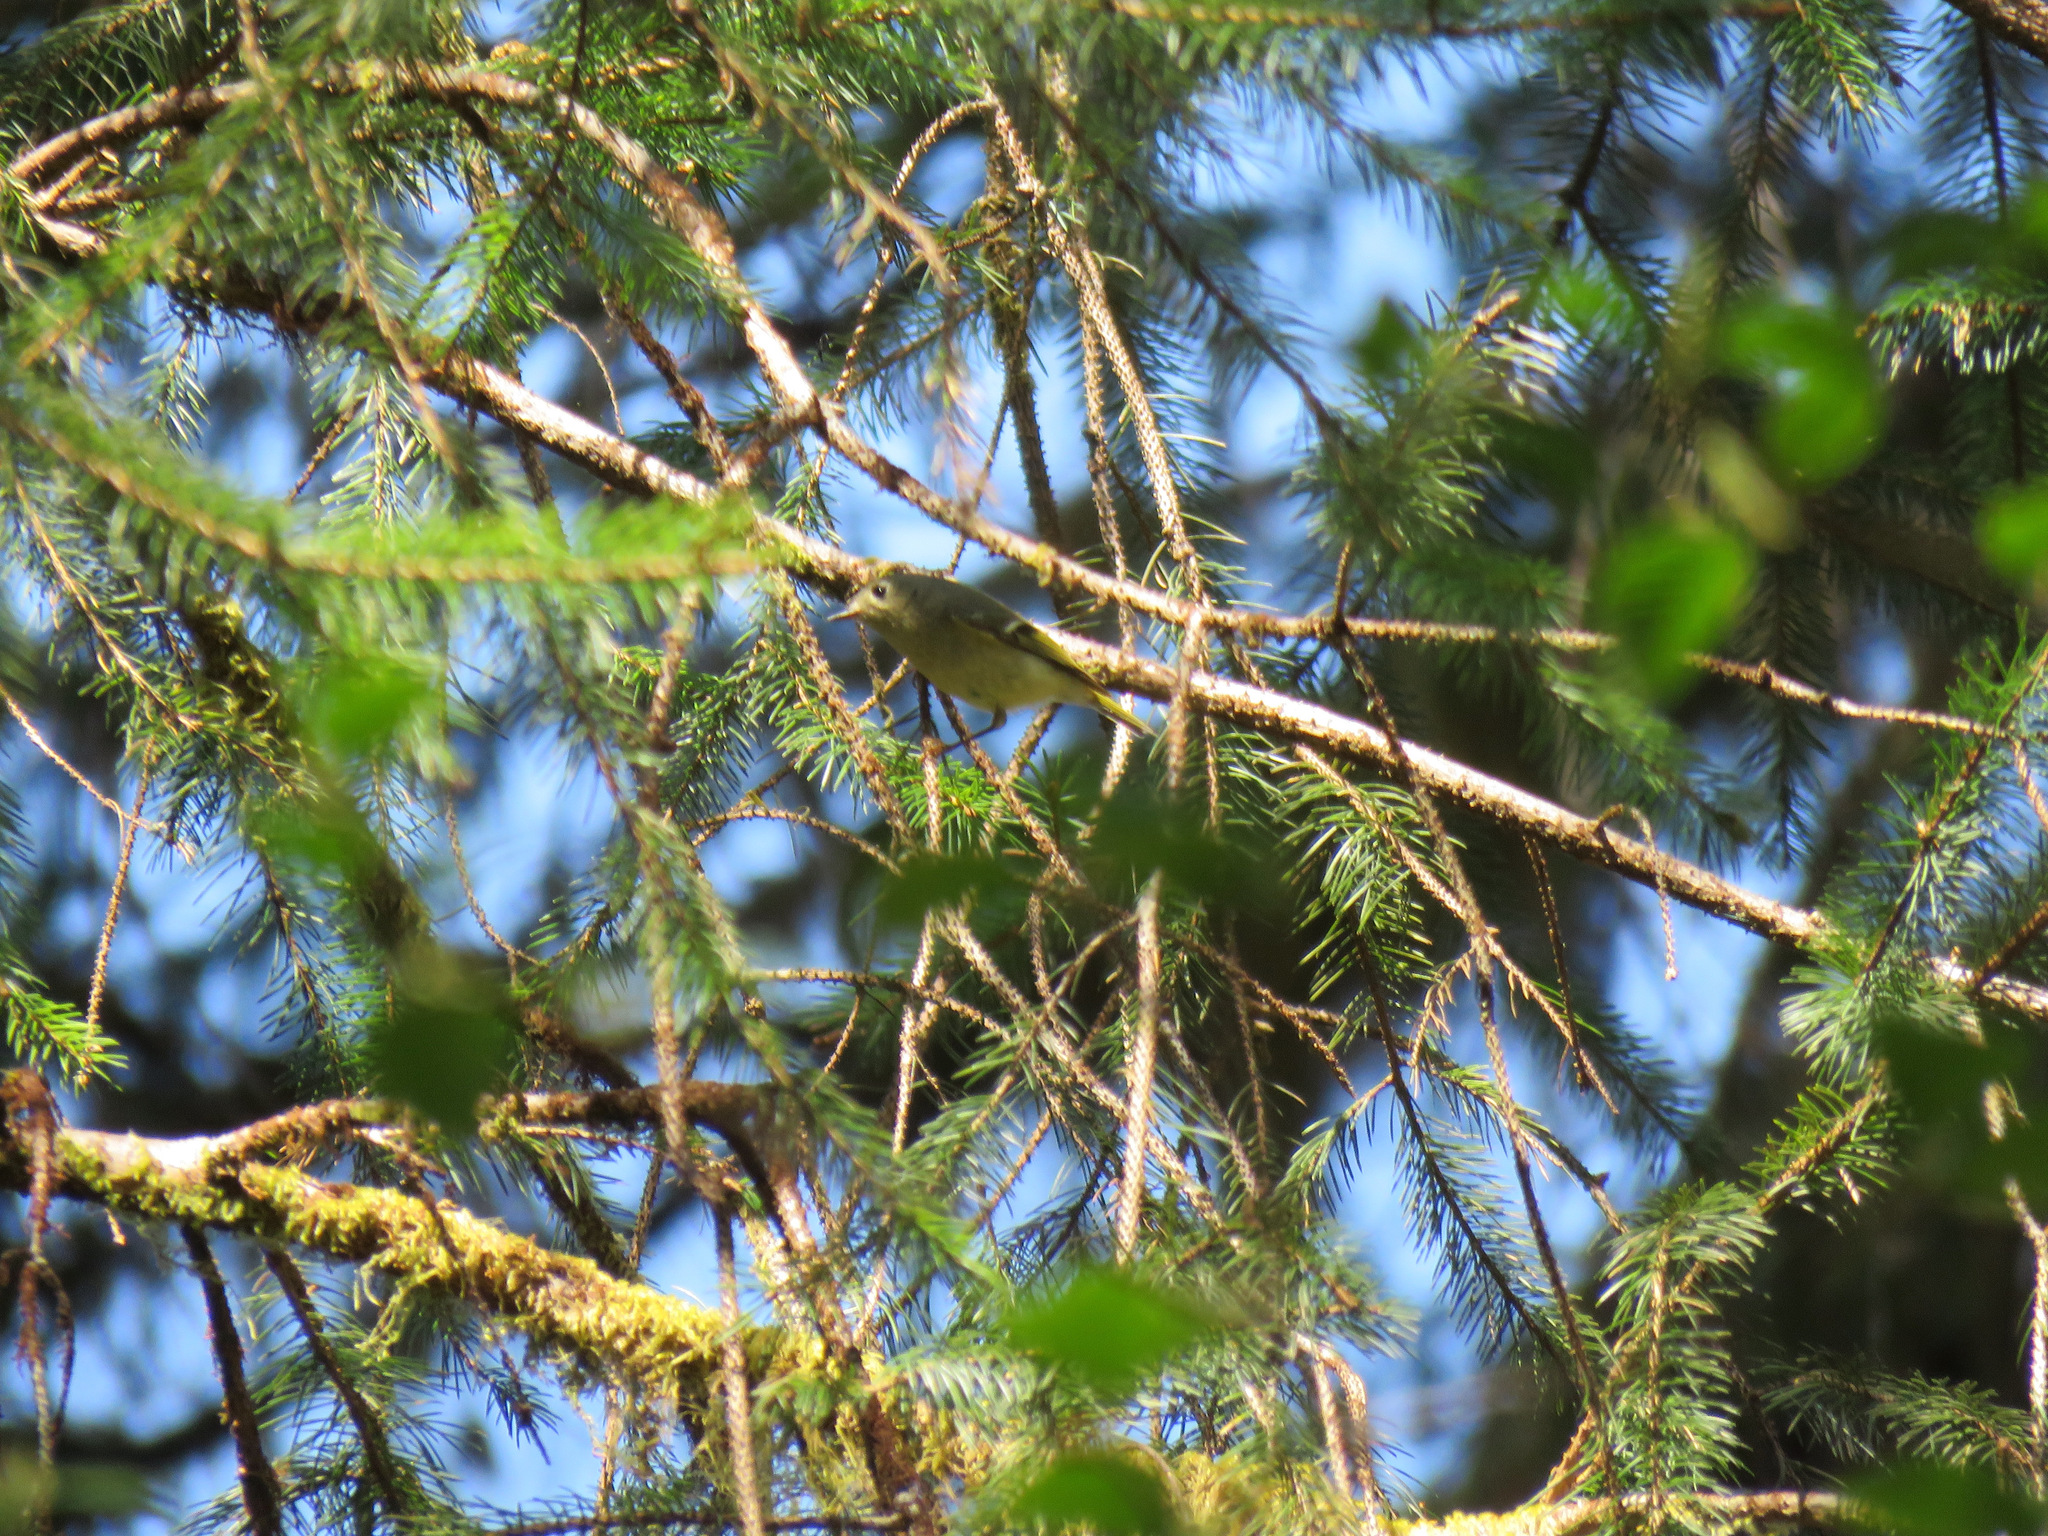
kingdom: Animalia
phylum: Chordata
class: Aves
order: Passeriformes
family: Regulidae
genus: Regulus
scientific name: Regulus calendula
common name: Ruby-crowned kinglet
